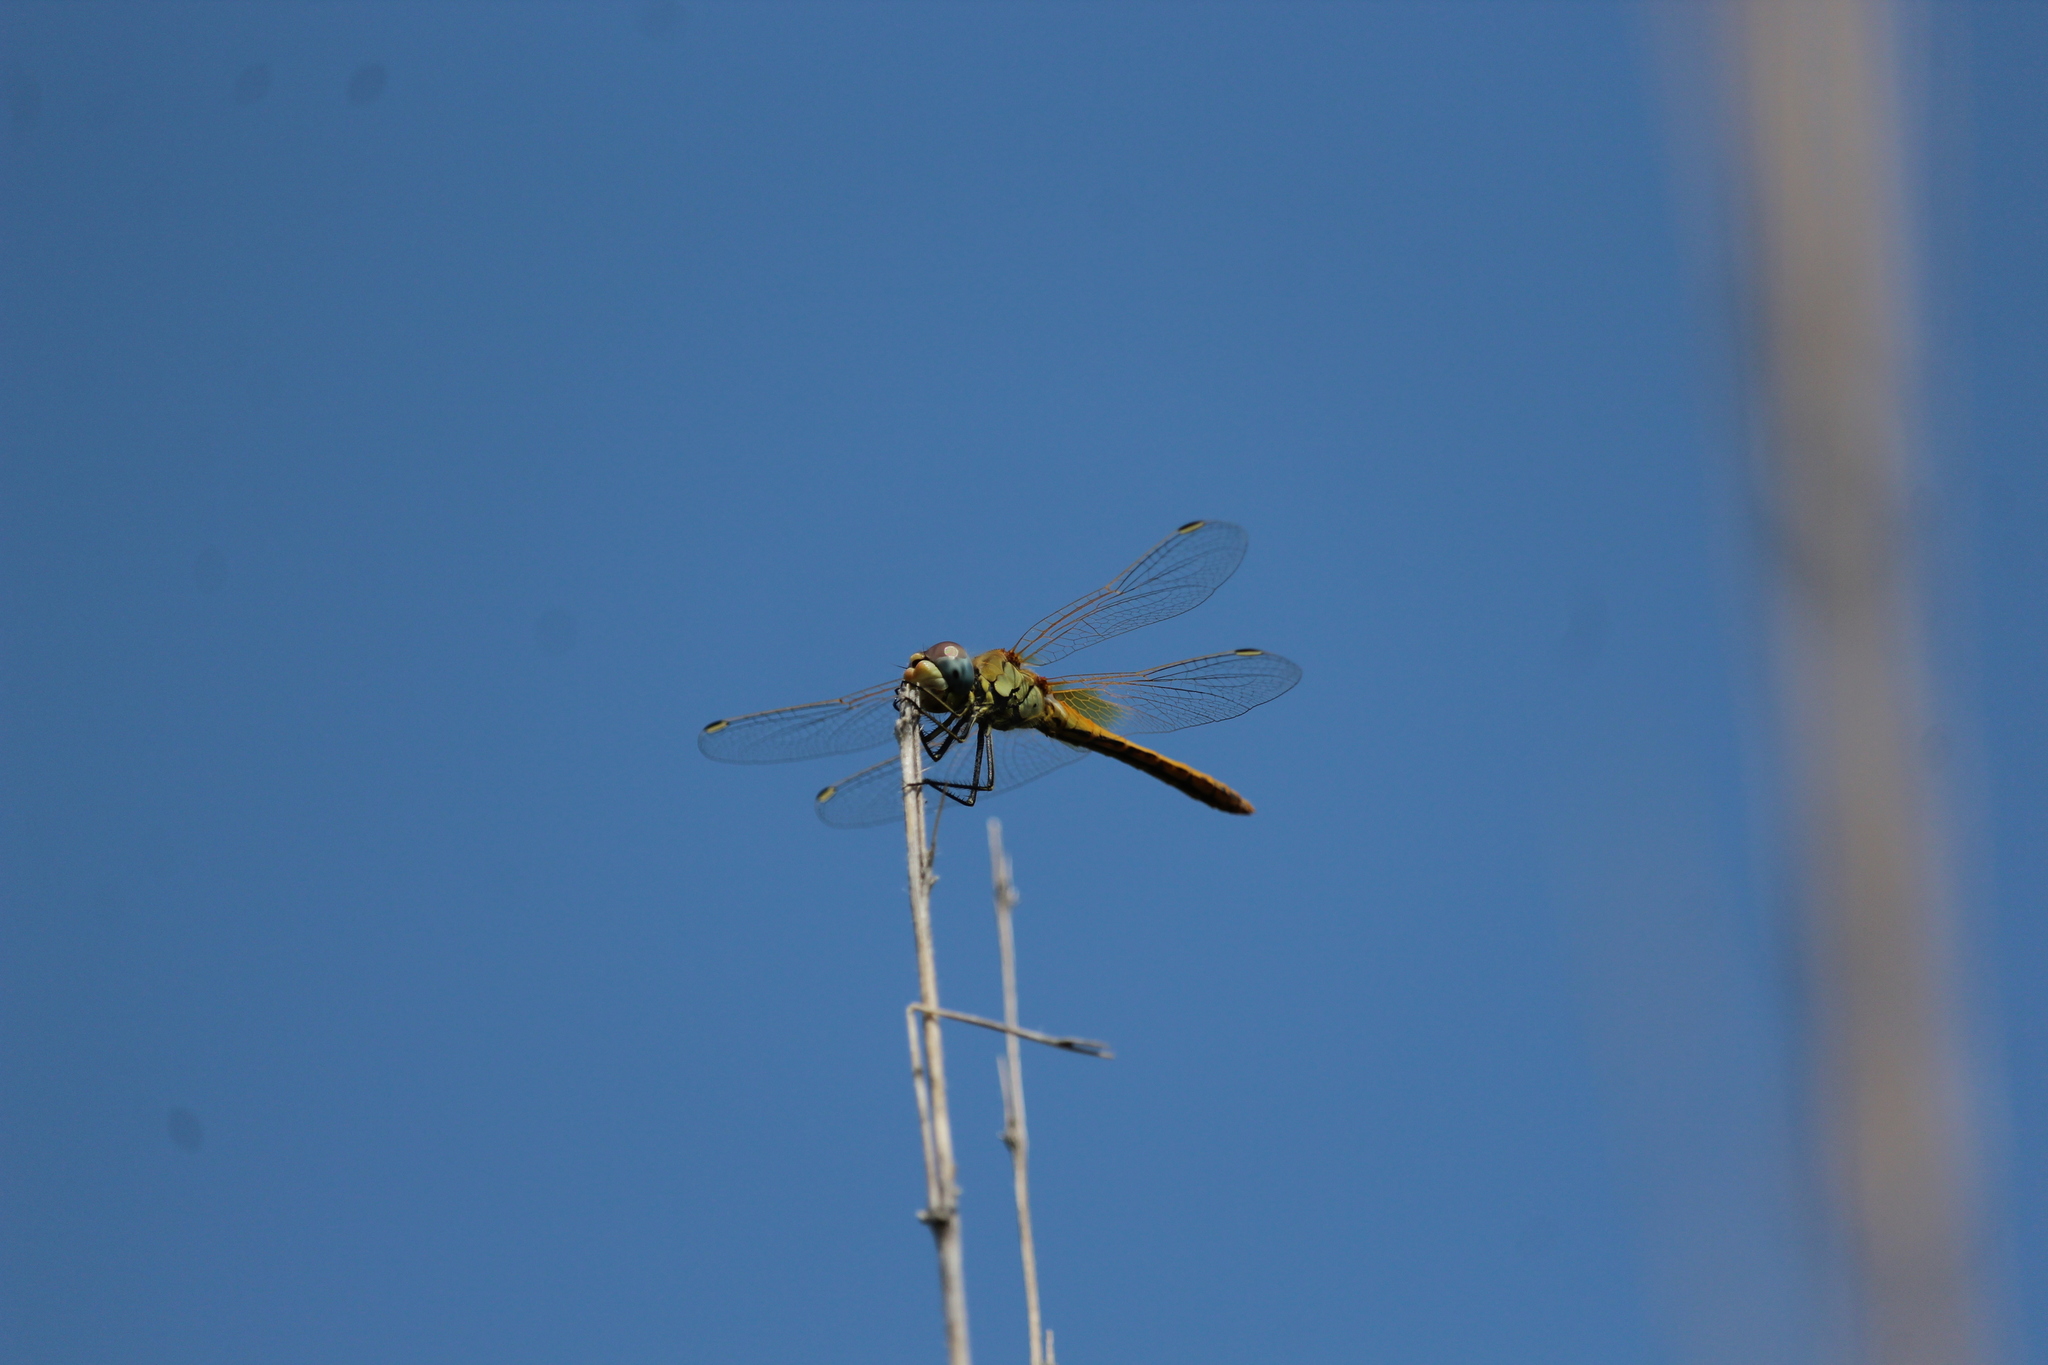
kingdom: Animalia
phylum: Arthropoda
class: Insecta
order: Odonata
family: Libellulidae
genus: Sympetrum
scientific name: Sympetrum fonscolombii
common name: Red-veined darter
